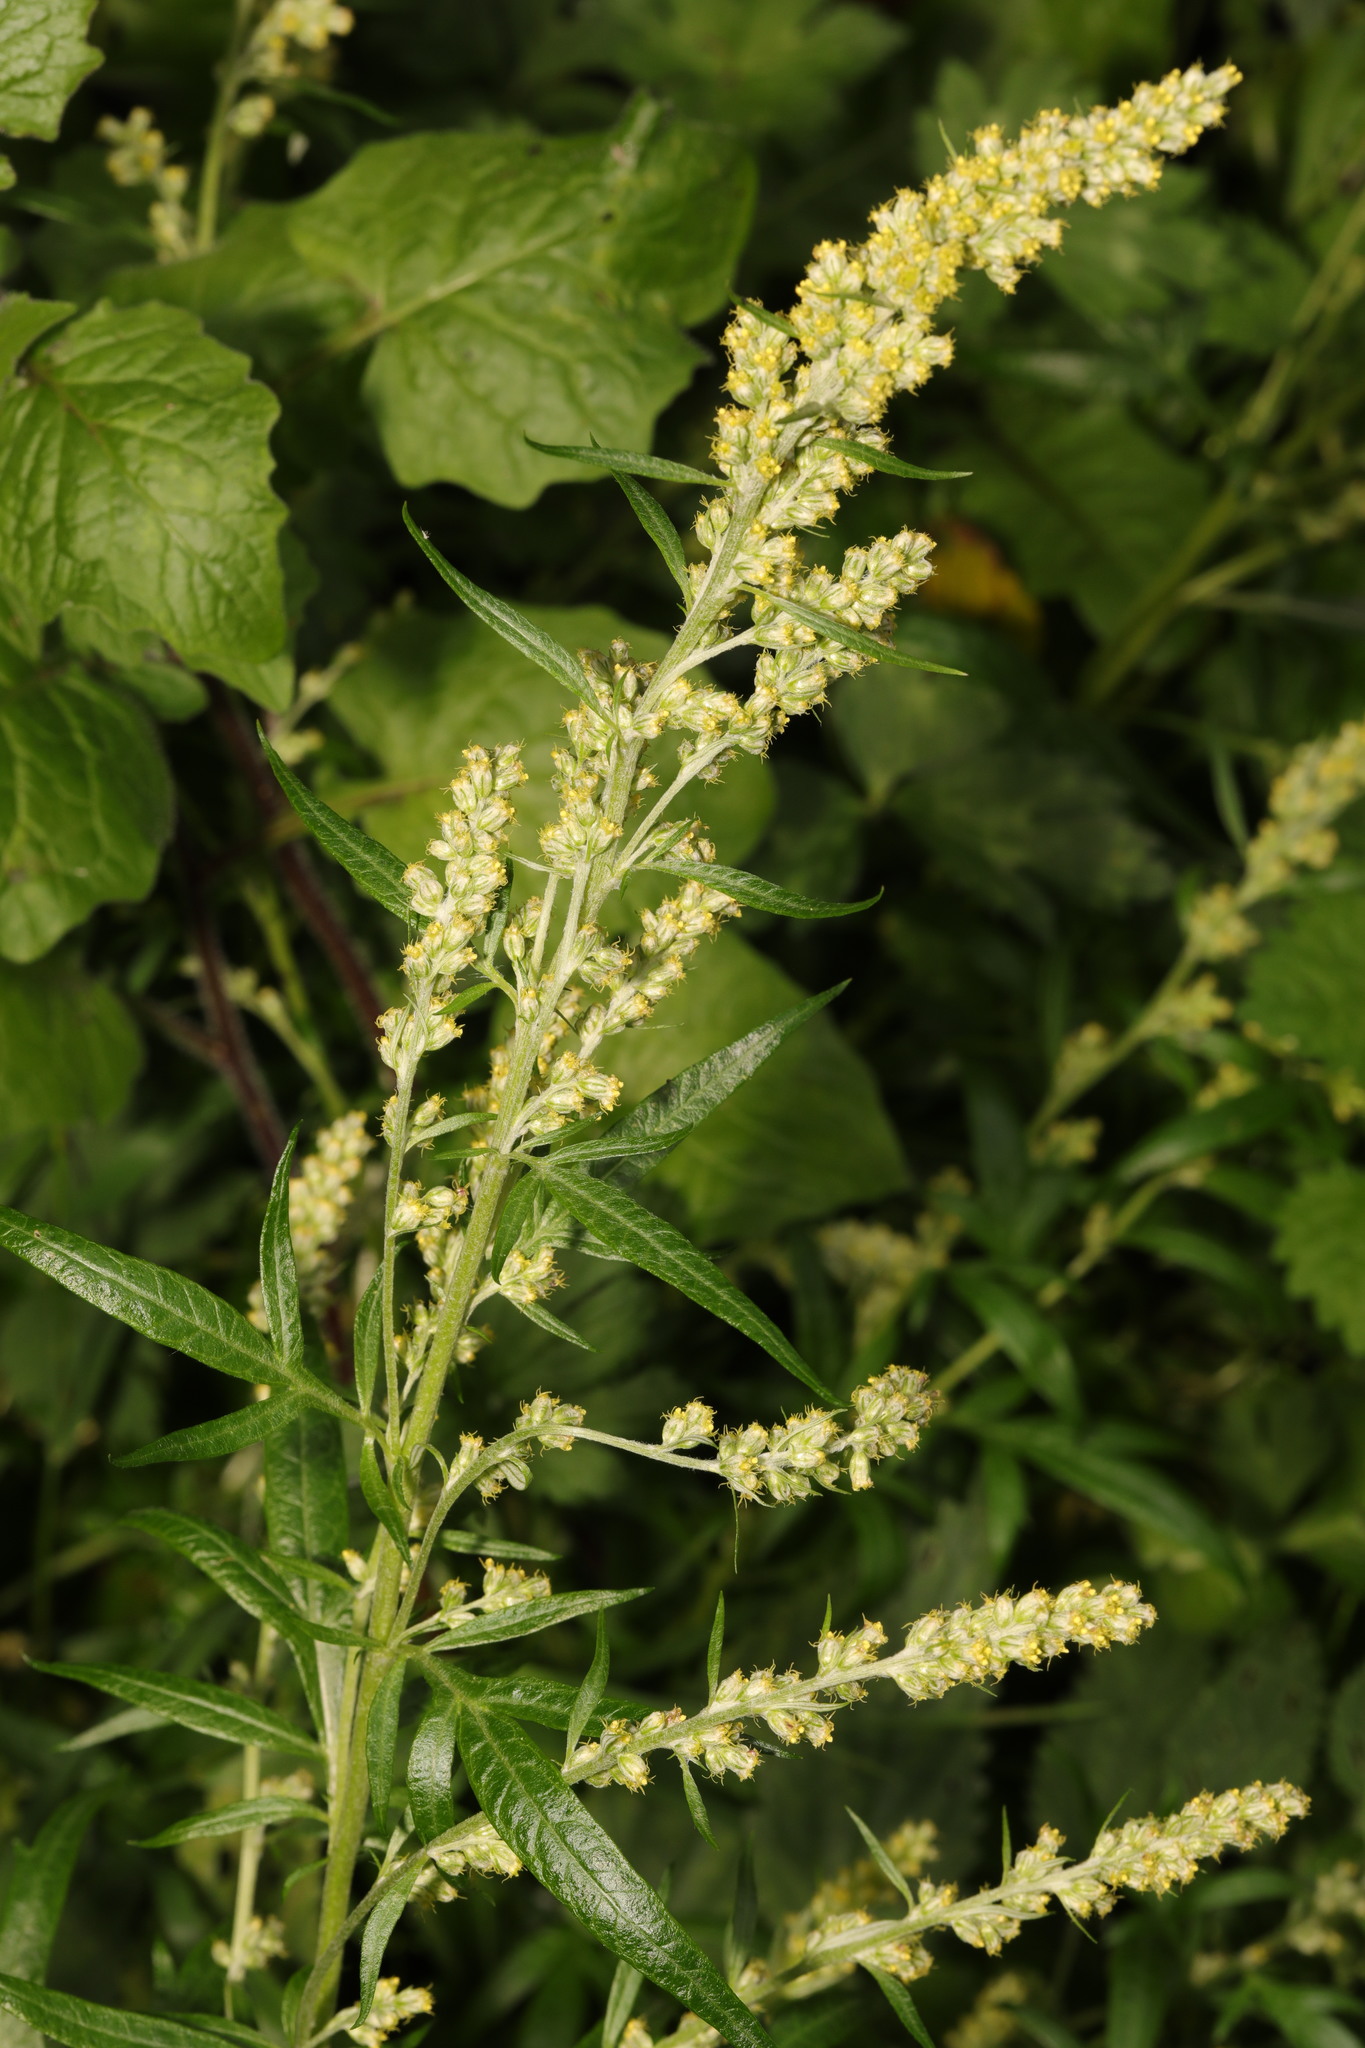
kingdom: Plantae
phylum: Tracheophyta
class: Magnoliopsida
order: Asterales
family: Asteraceae
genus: Artemisia
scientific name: Artemisia vulgaris
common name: Mugwort
